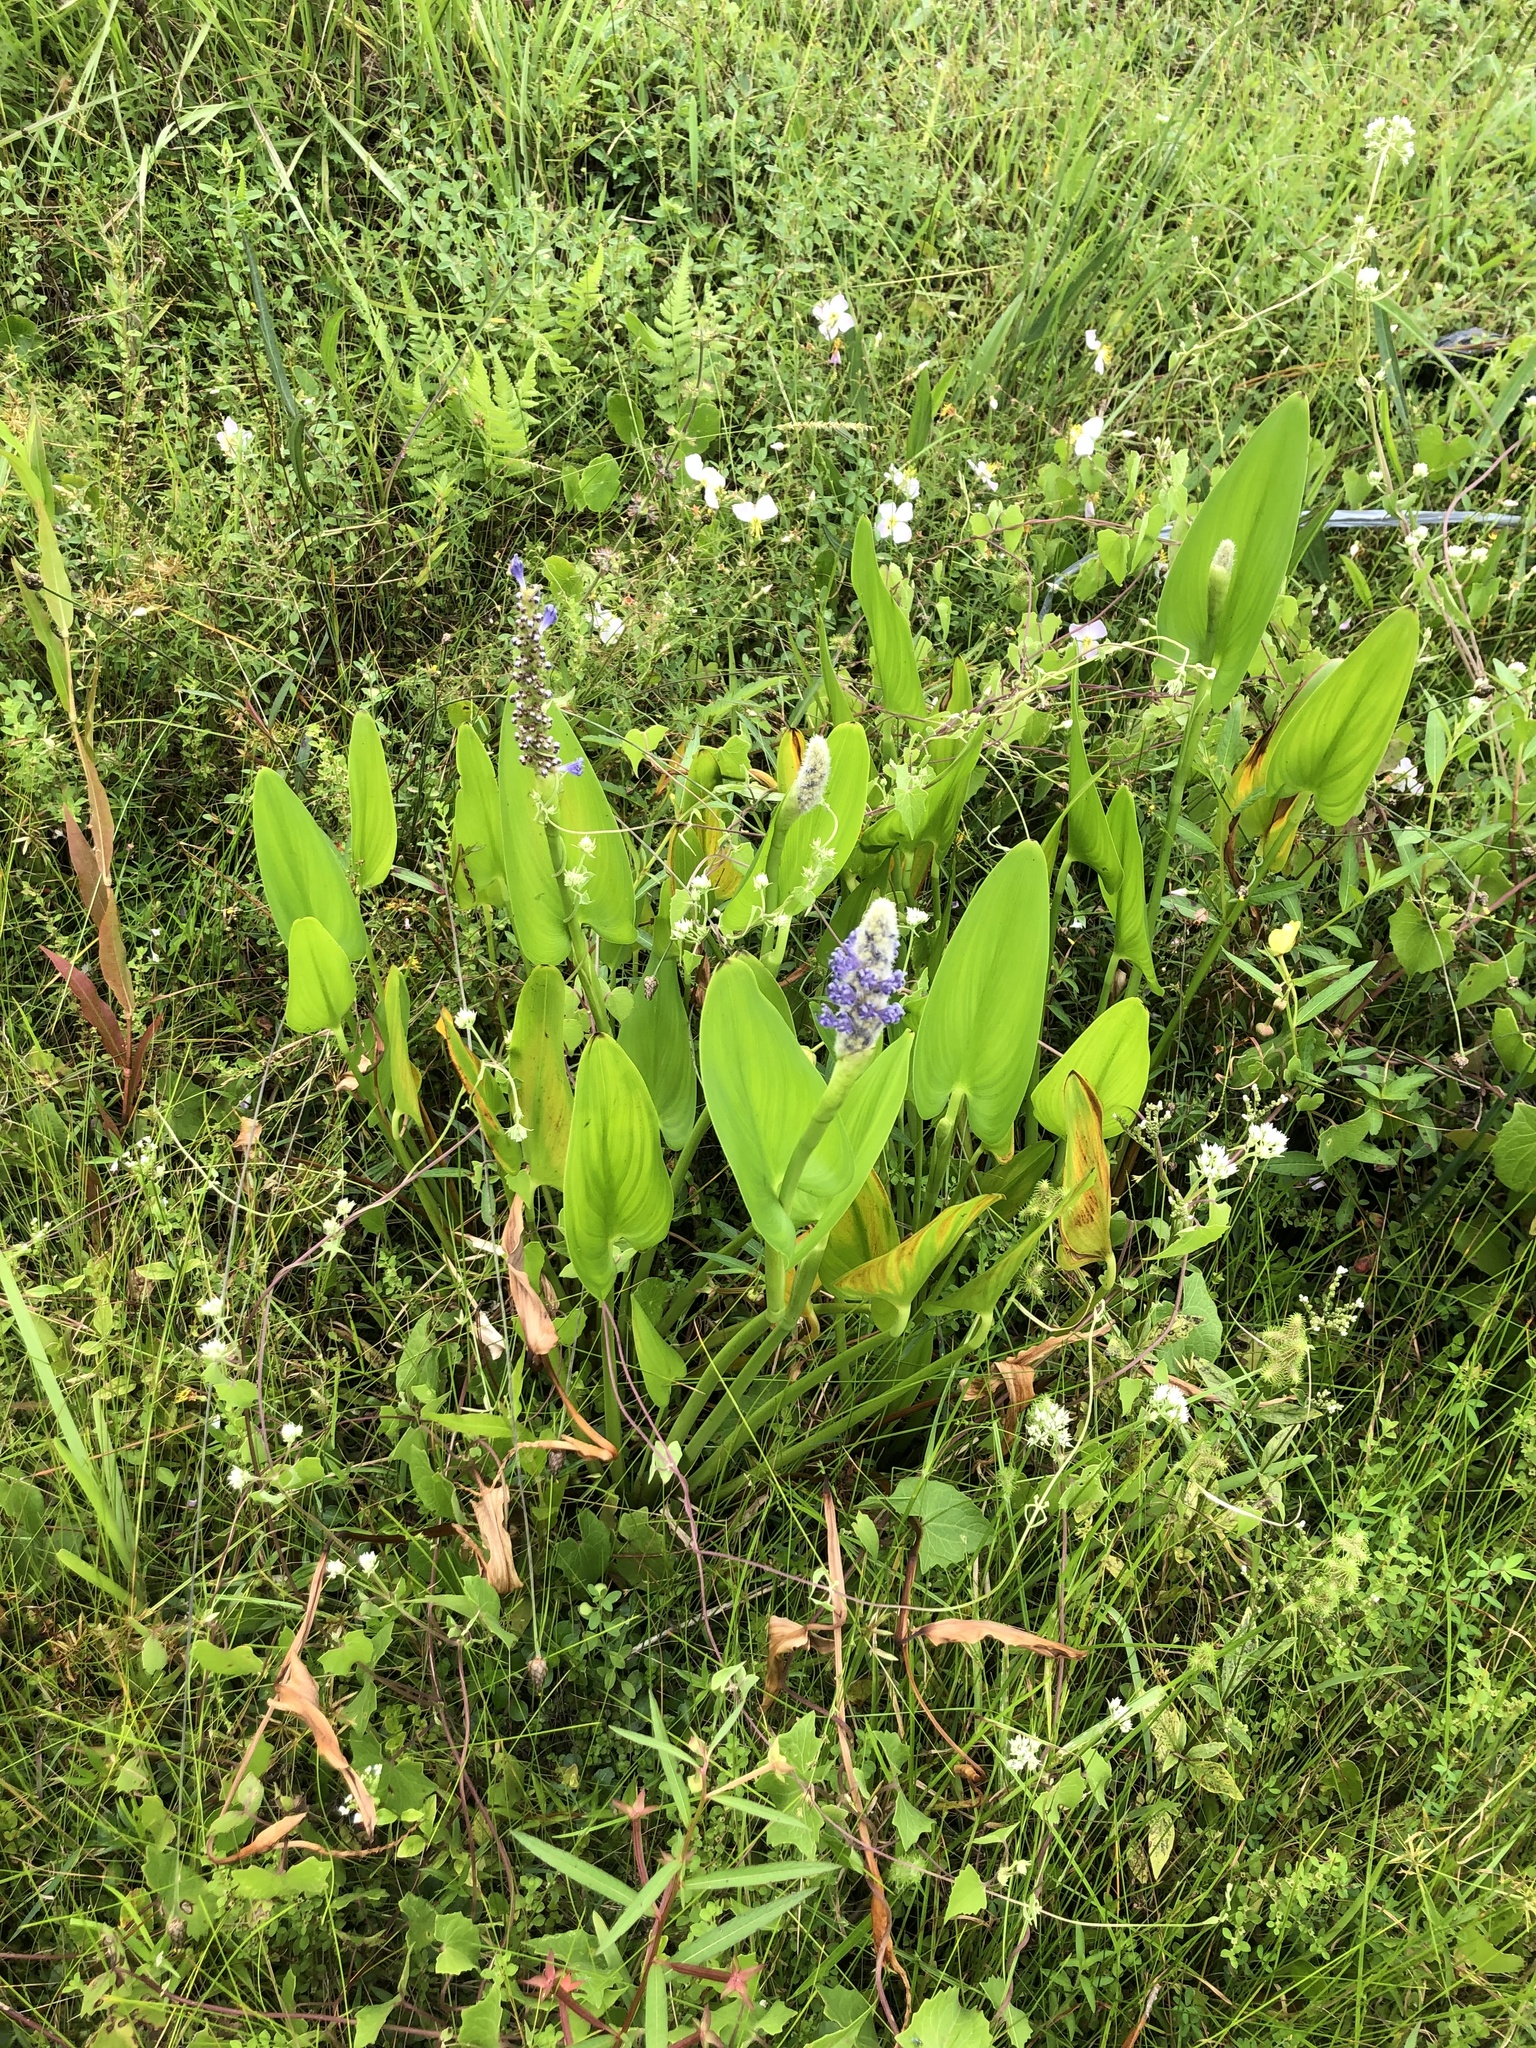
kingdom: Plantae
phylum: Tracheophyta
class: Liliopsida
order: Commelinales
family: Pontederiaceae
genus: Pontederia
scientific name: Pontederia cordata
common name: Pickerelweed
